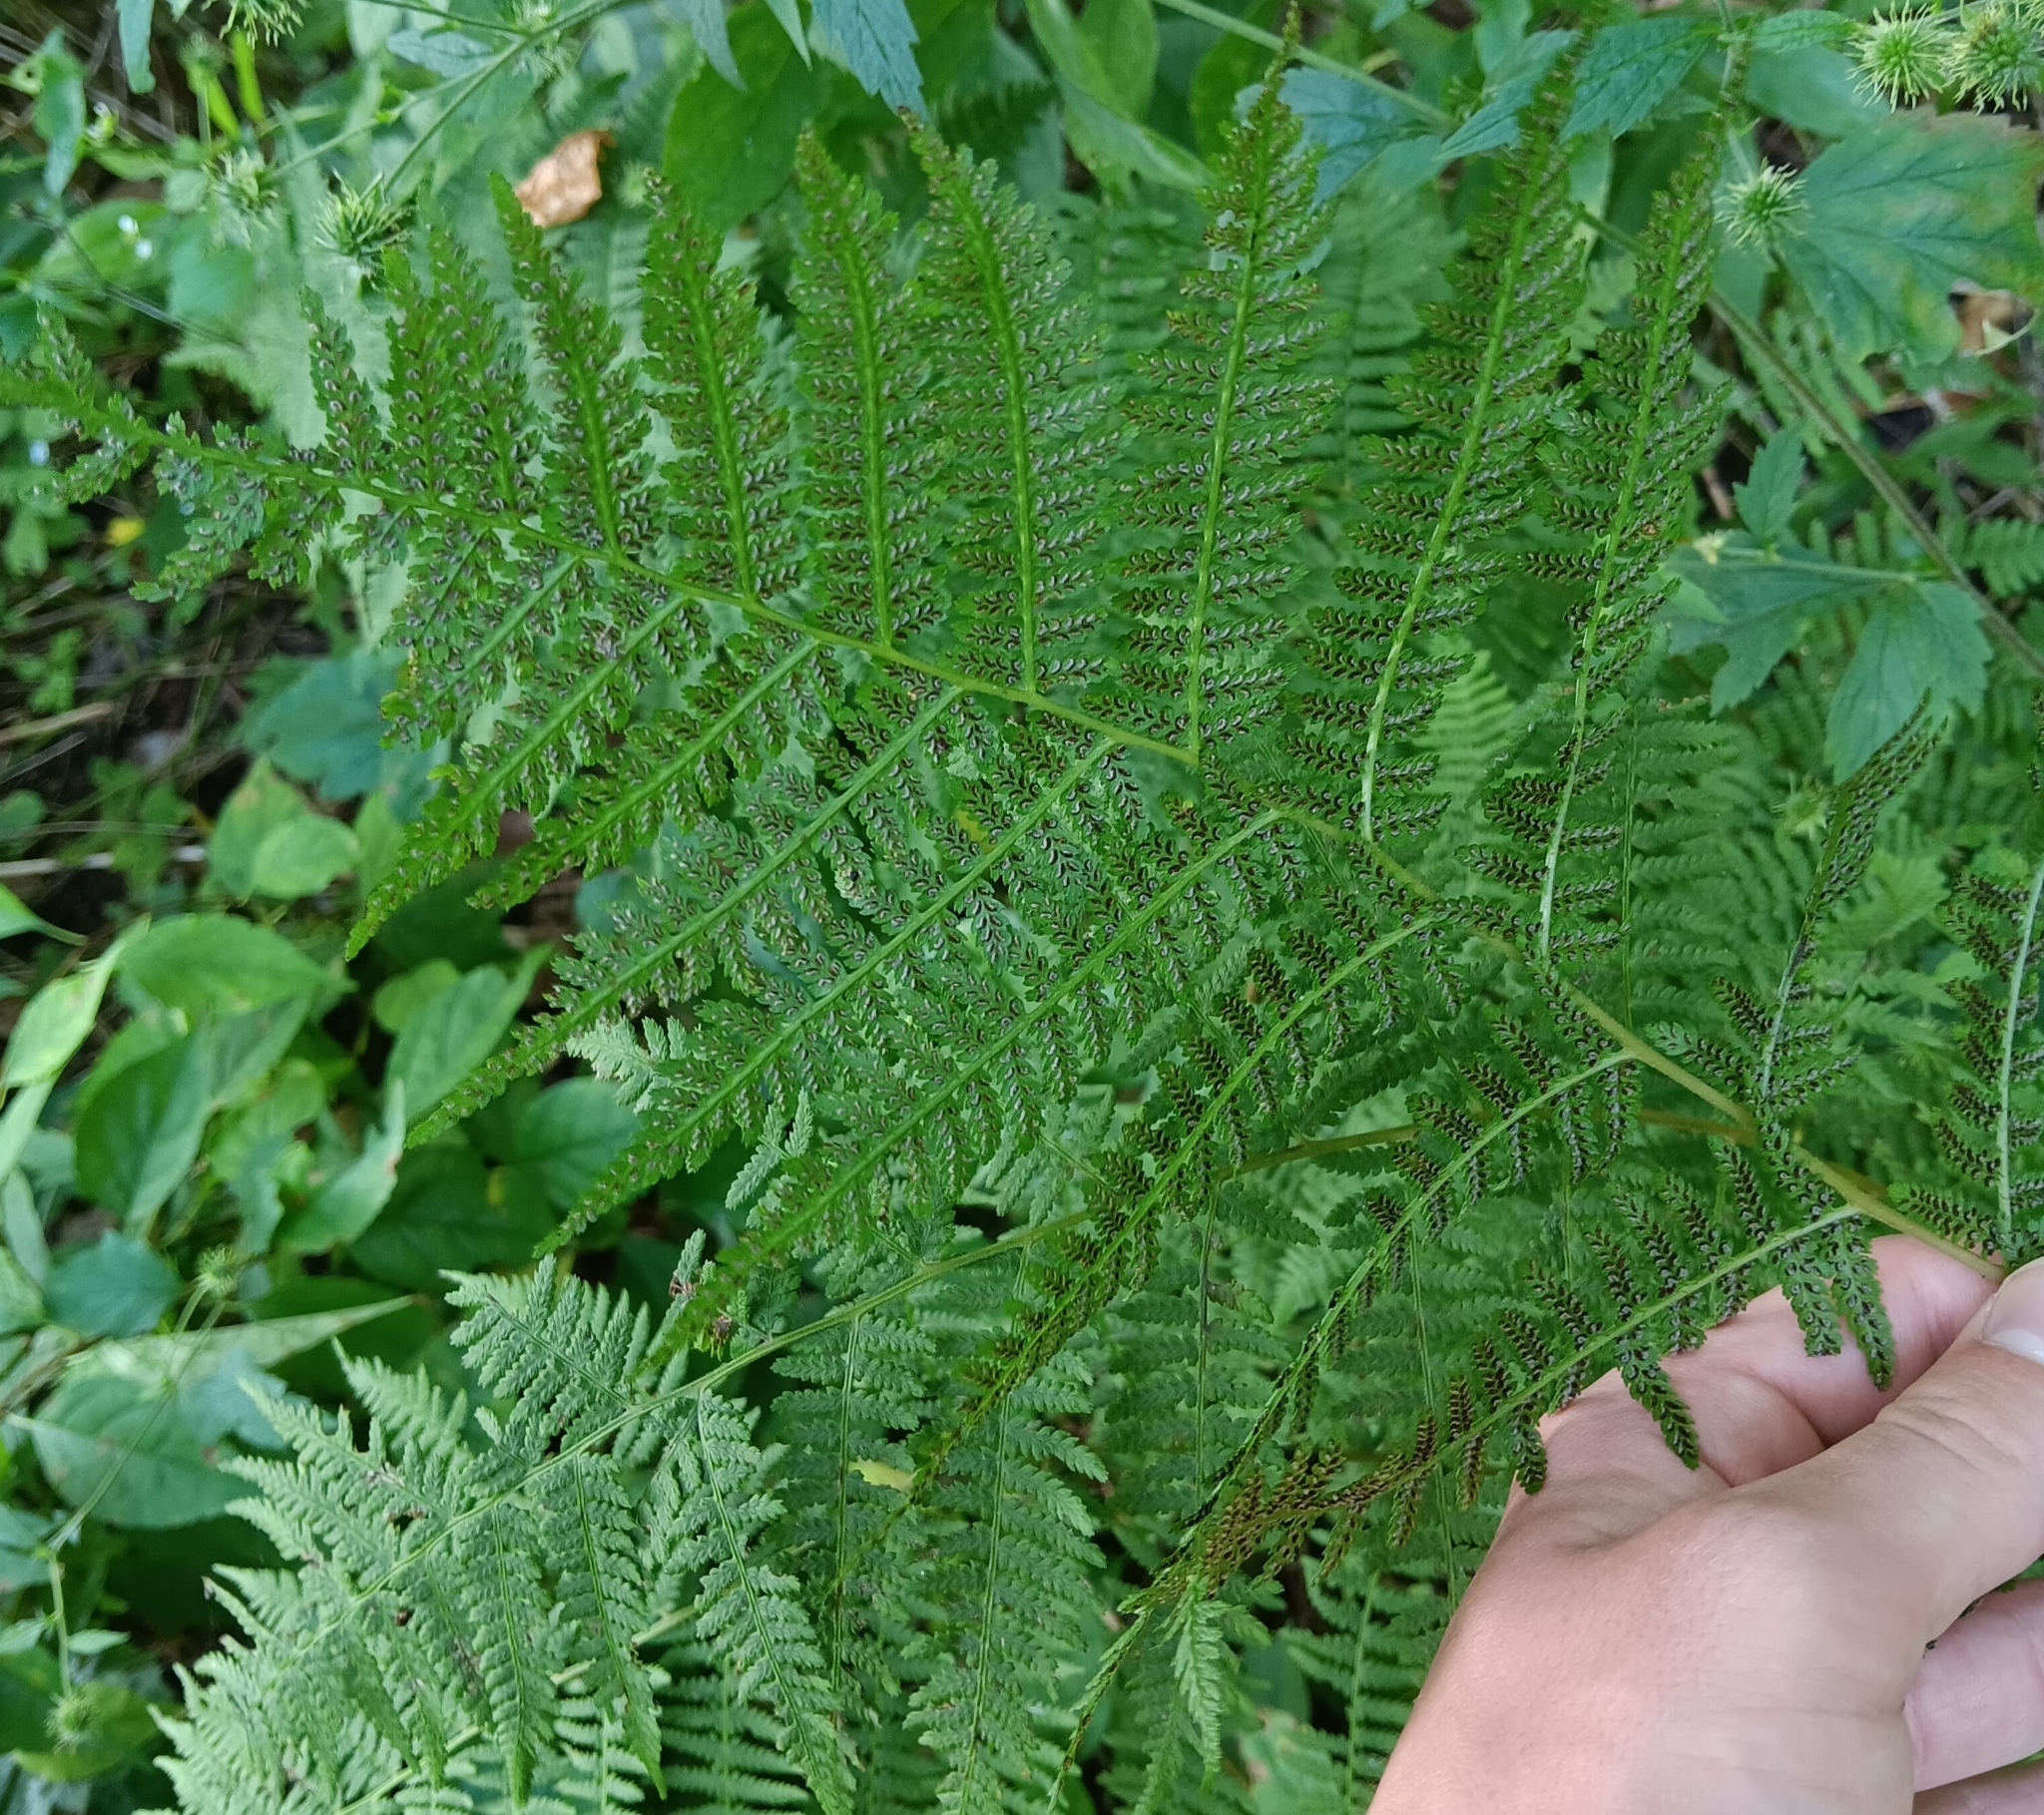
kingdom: Plantae
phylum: Tracheophyta
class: Polypodiopsida
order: Polypodiales
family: Athyriaceae
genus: Athyrium
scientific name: Athyrium angustum
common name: Northern lady fern
